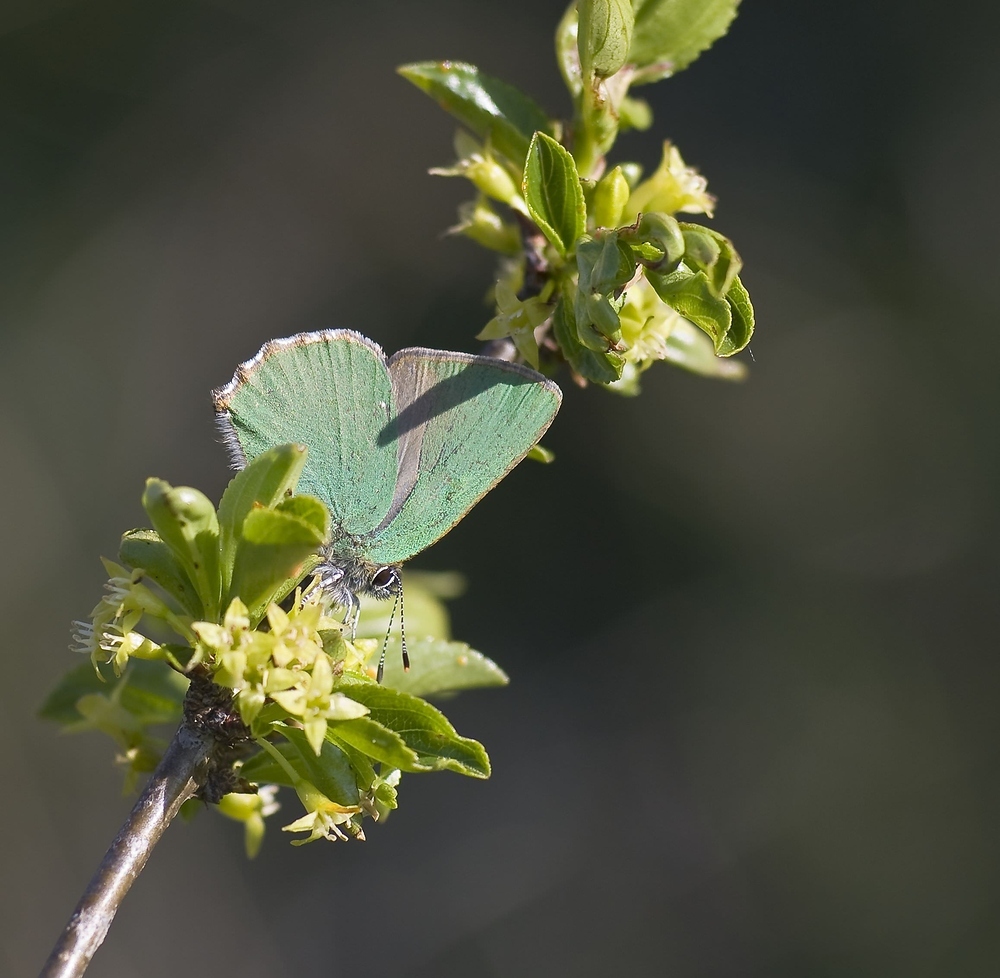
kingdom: Animalia
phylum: Arthropoda
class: Insecta
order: Lepidoptera
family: Lycaenidae
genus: Callophrys
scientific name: Callophrys rubi
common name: Green hairstreak
